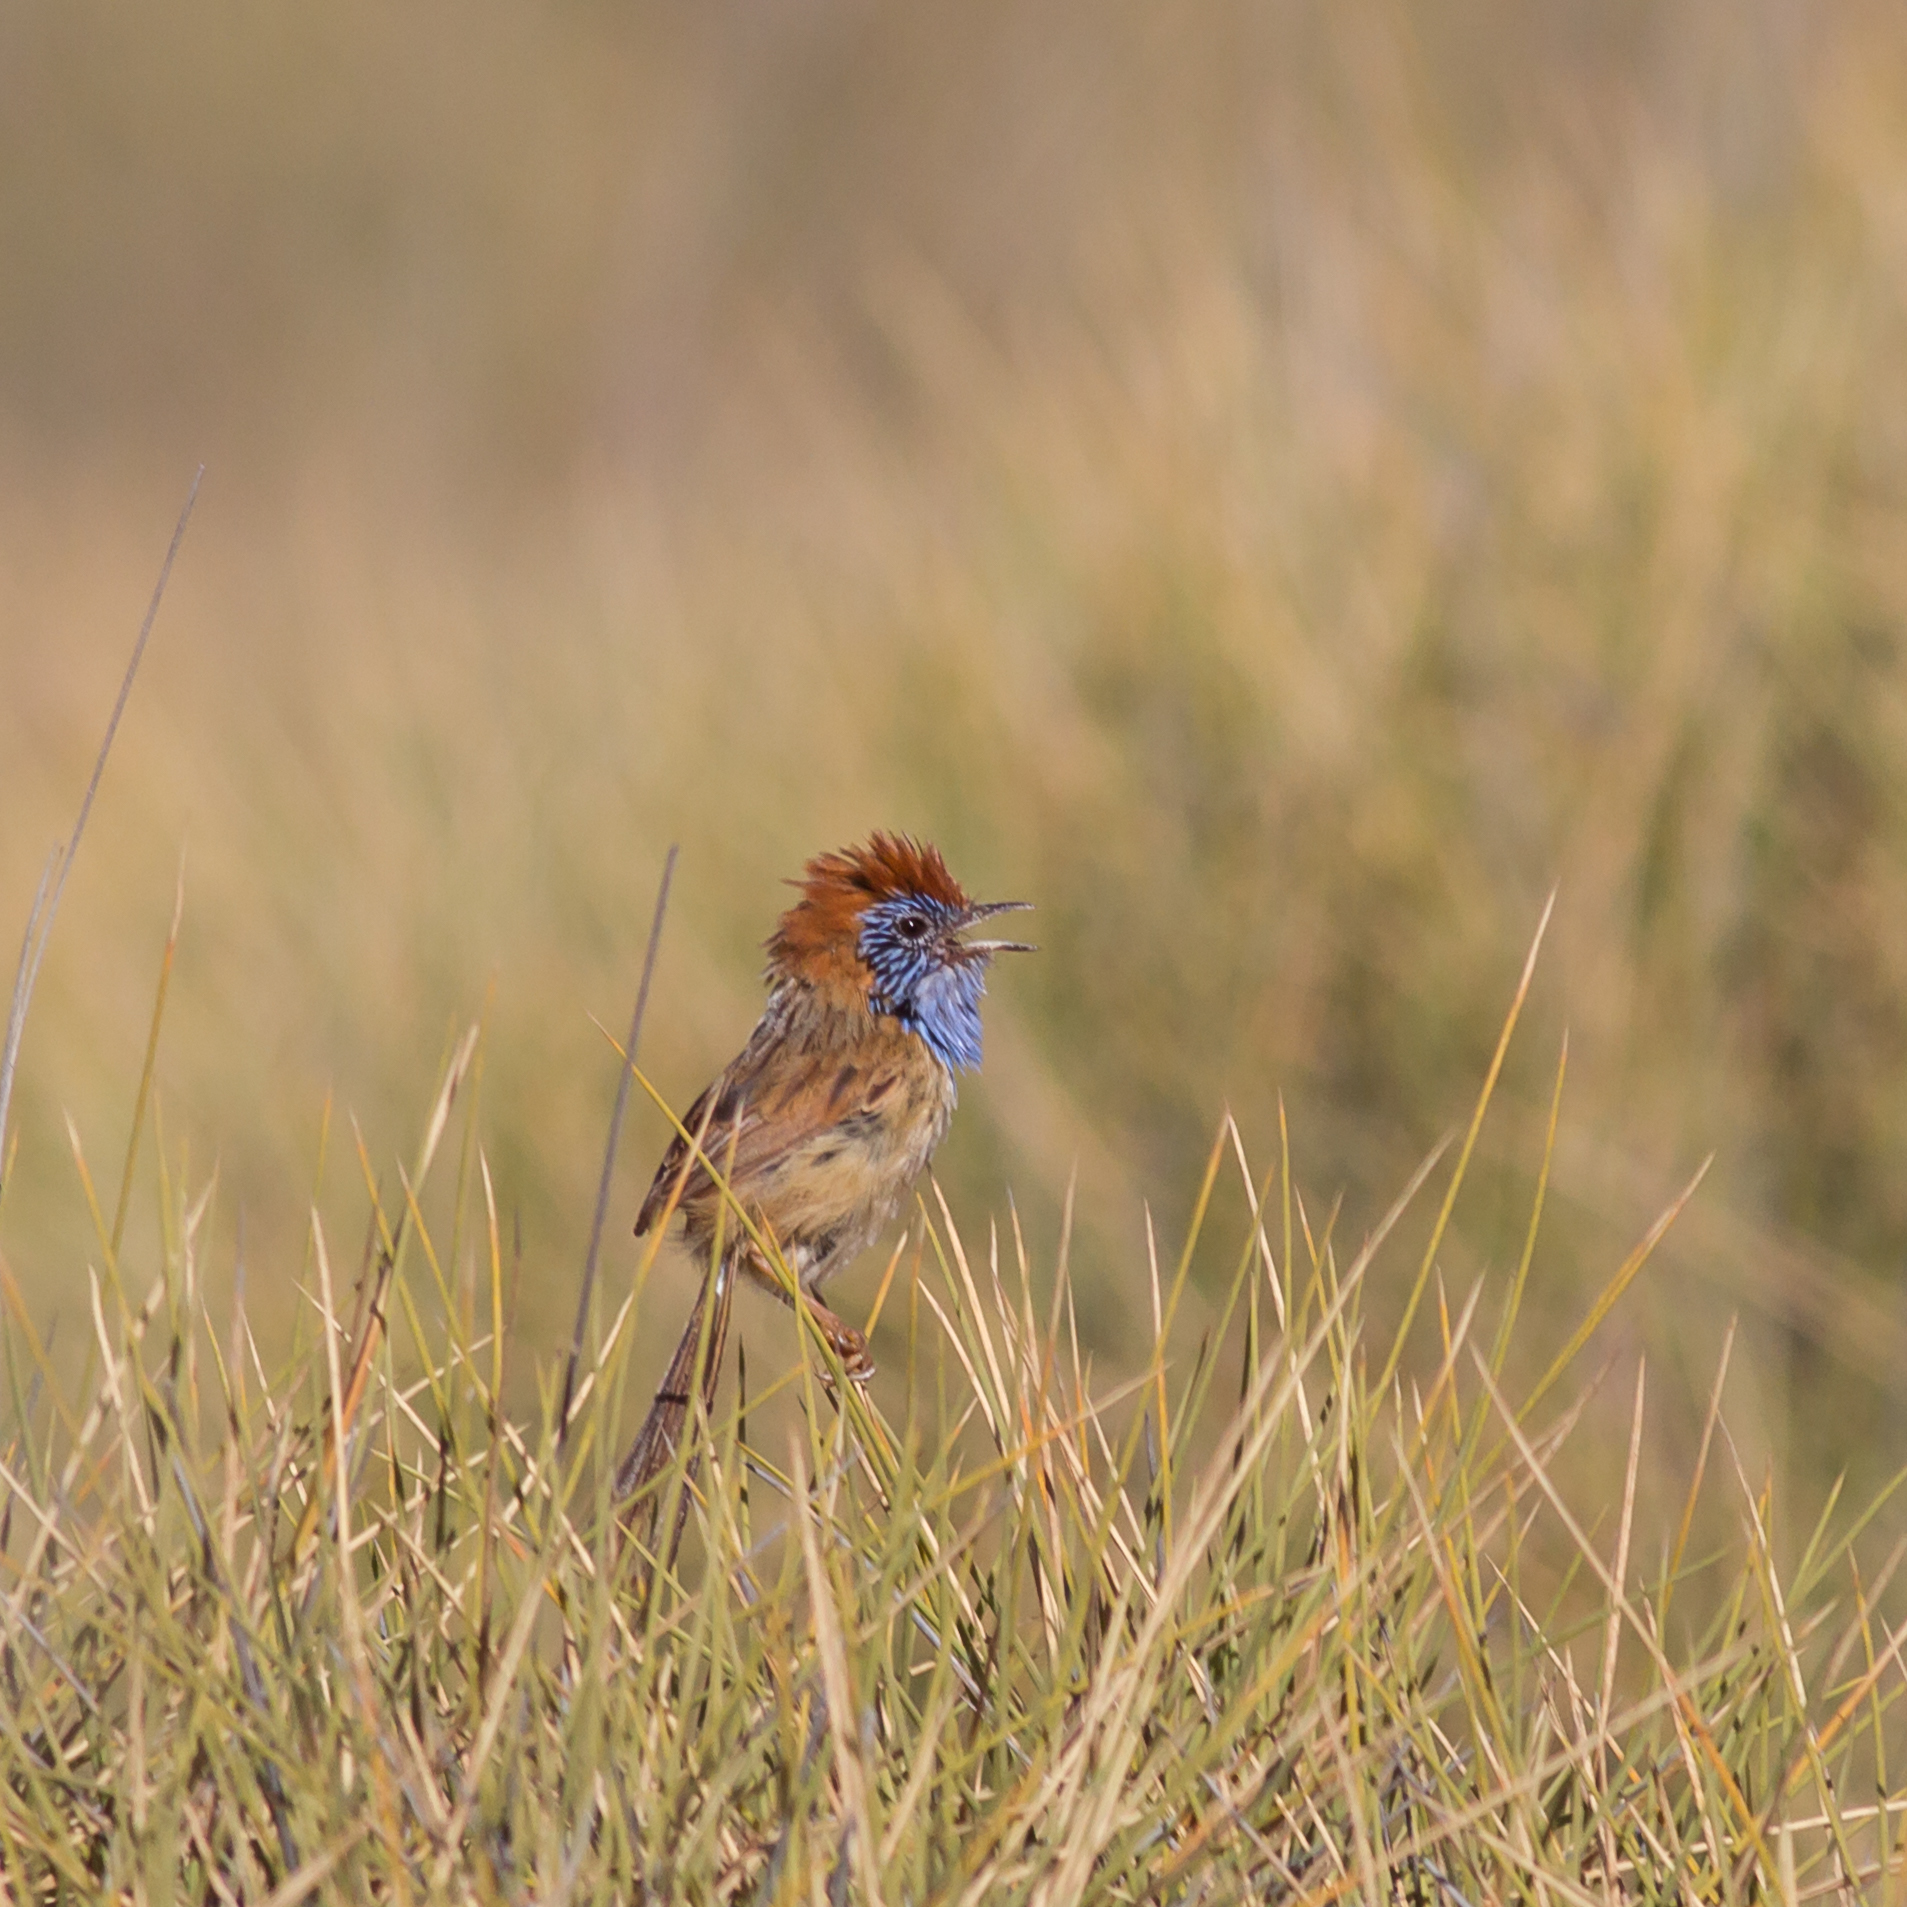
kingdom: Animalia
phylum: Chordata
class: Aves
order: Passeriformes
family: Maluridae
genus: Stipiturus
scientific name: Stipiturus ruficeps
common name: Rufous-crowned emu-wren
